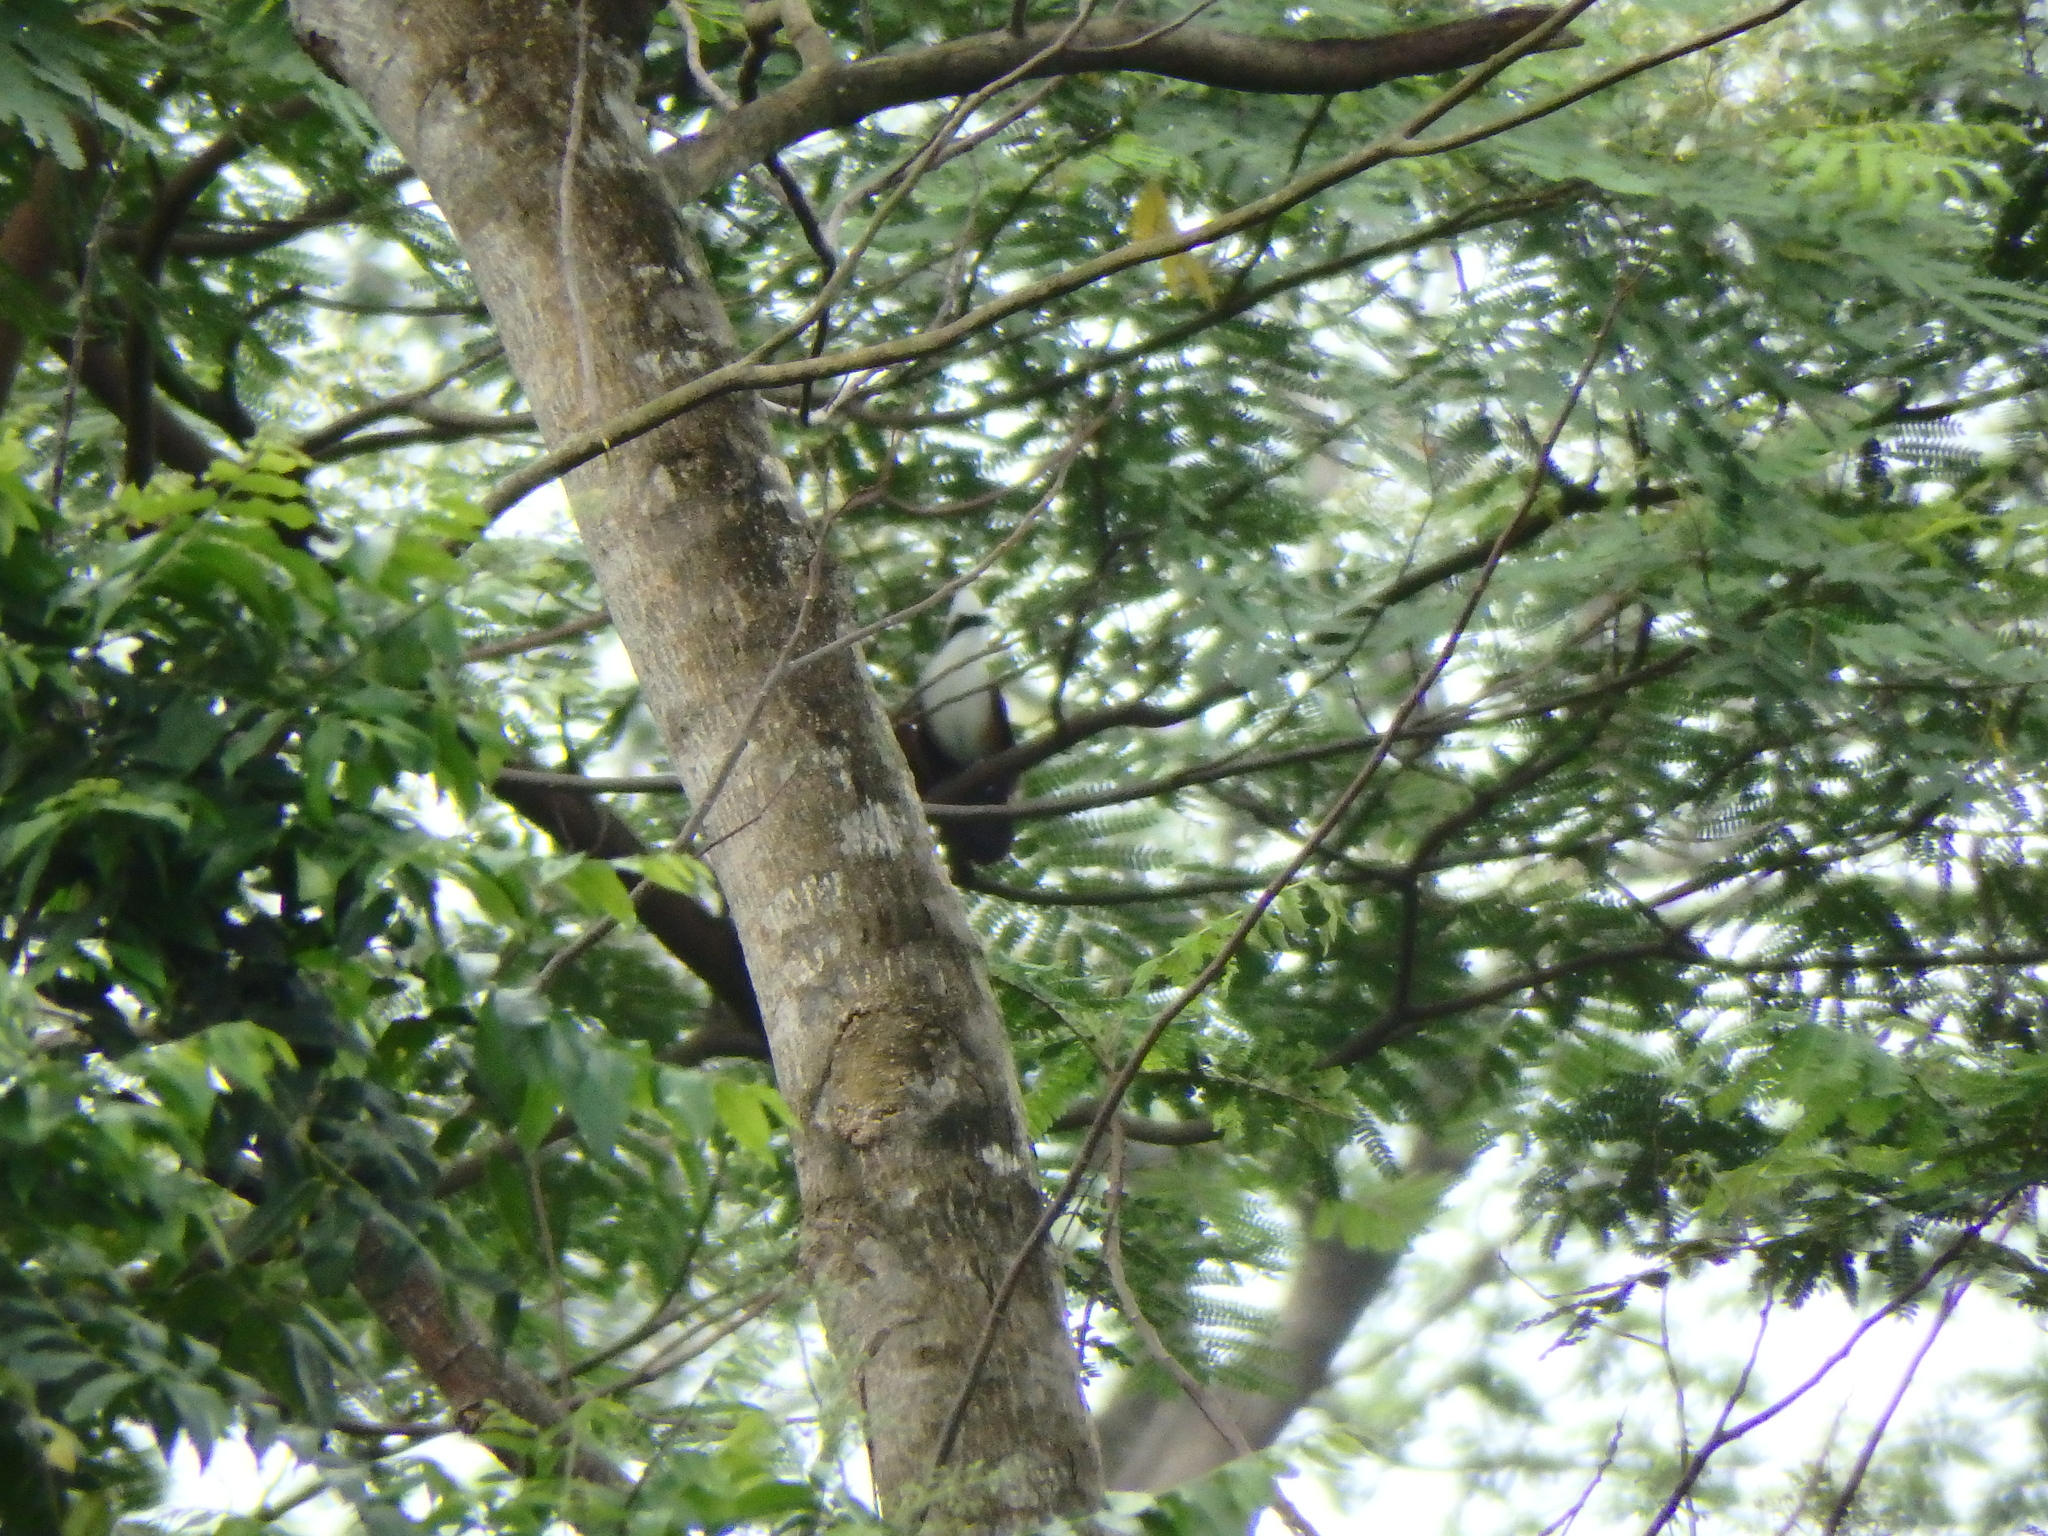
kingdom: Animalia
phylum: Chordata
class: Aves
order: Passeriformes
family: Leiothrichidae
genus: Garrulax
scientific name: Garrulax leucolophus
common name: White-crested laughingthrush
